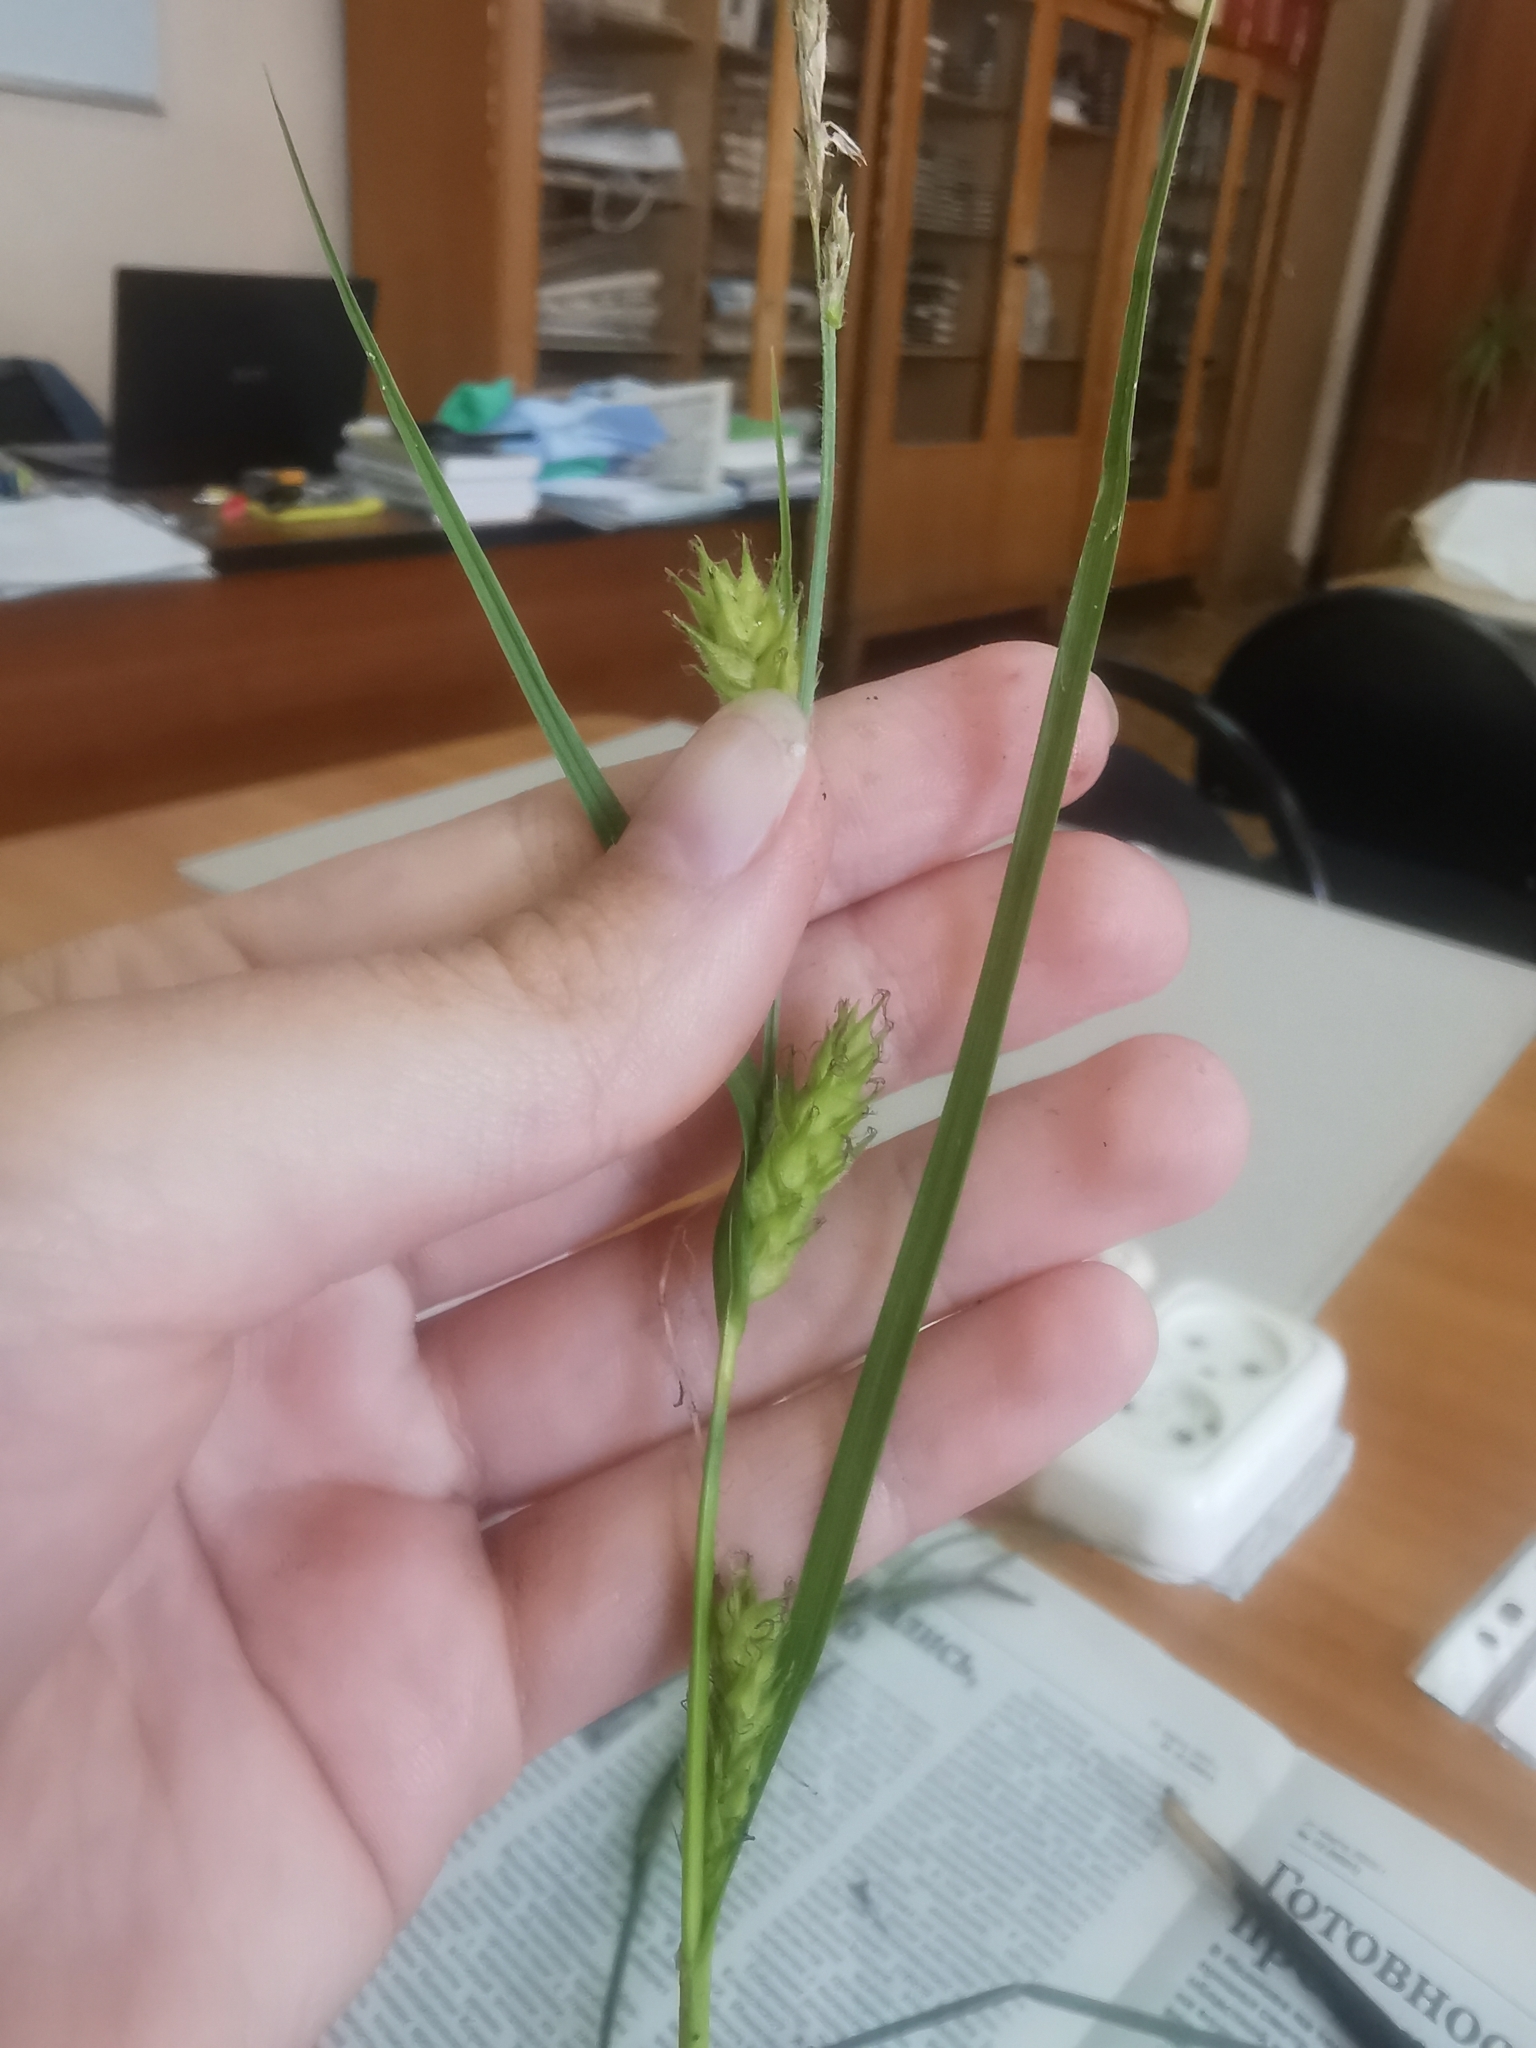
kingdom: Plantae
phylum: Tracheophyta
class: Liliopsida
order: Poales
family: Cyperaceae
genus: Carex
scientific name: Carex hirta
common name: Hairy sedge
